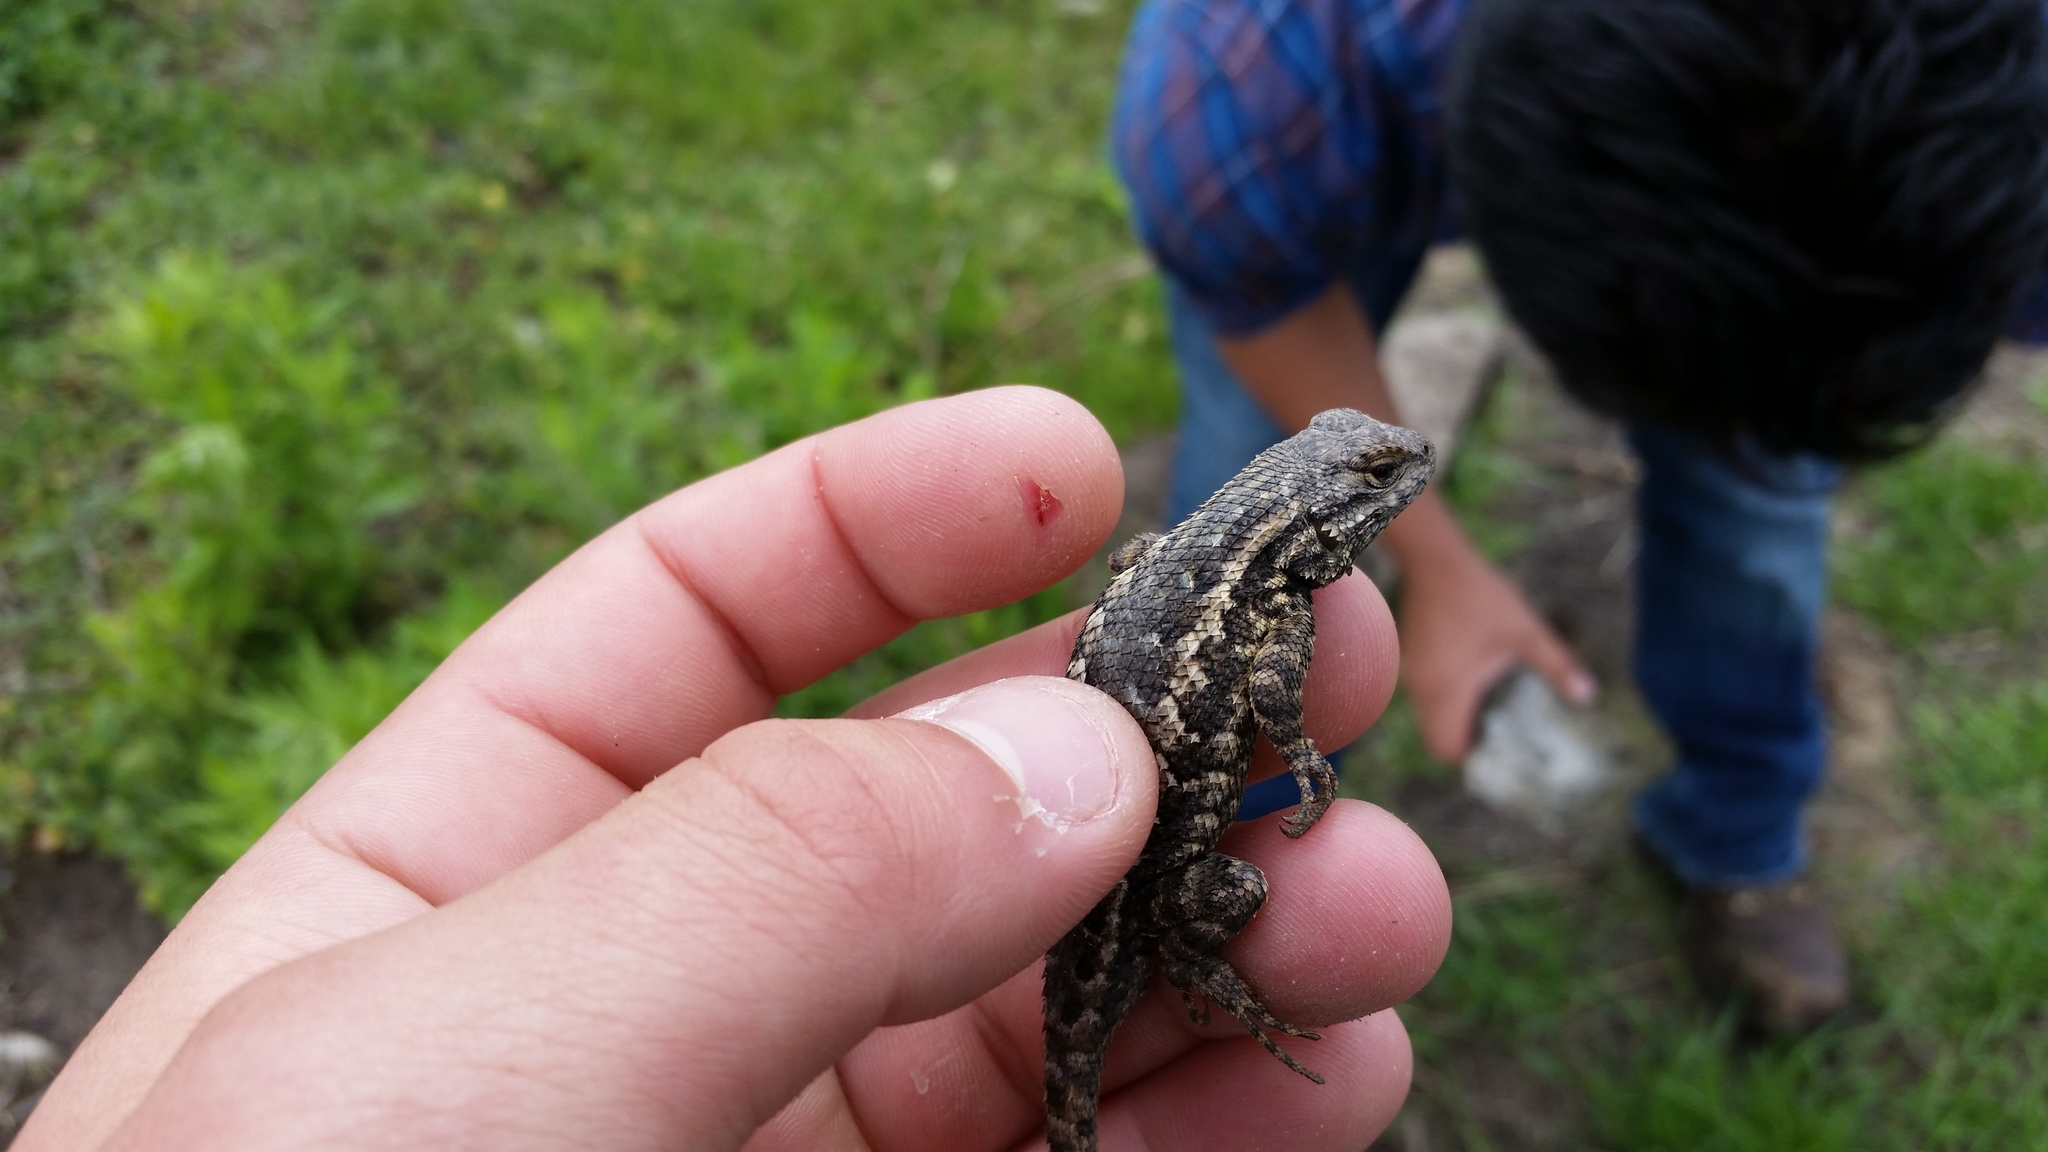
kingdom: Animalia
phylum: Chordata
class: Squamata
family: Phrynosomatidae
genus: Sceloporus
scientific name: Sceloporus occidentalis
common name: Western fence lizard
